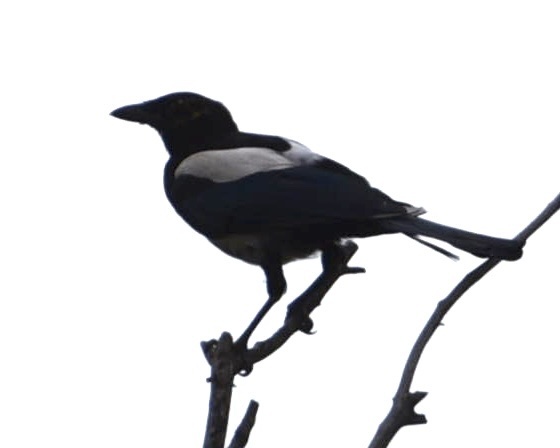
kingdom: Animalia
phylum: Chordata
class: Aves
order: Passeriformes
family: Corvidae
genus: Pica
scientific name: Pica pica
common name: Eurasian magpie
